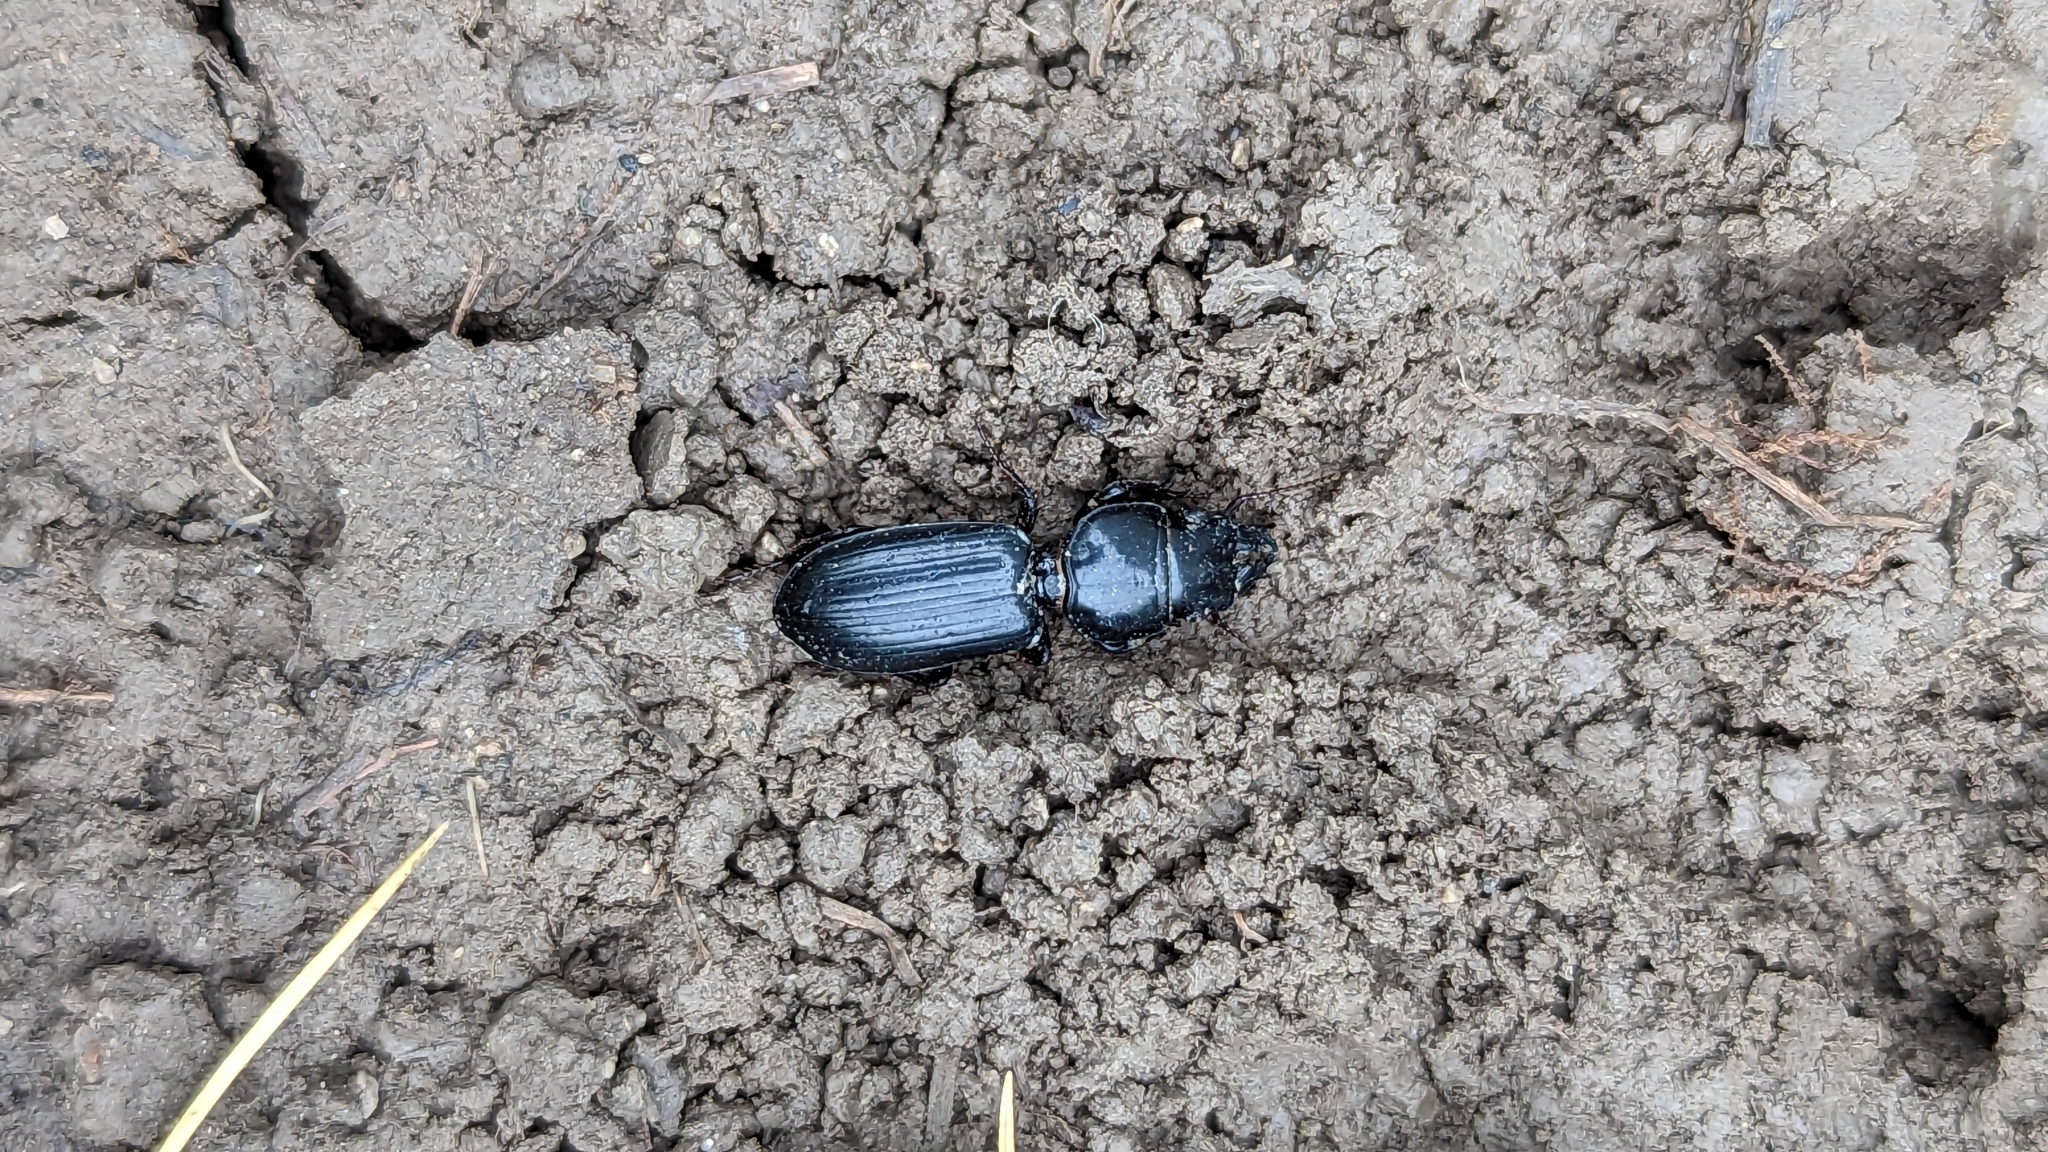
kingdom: Animalia
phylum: Arthropoda
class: Insecta
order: Coleoptera
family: Carabidae
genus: Scarites
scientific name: Scarites subterraneus
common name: Big-headed ground beetle
